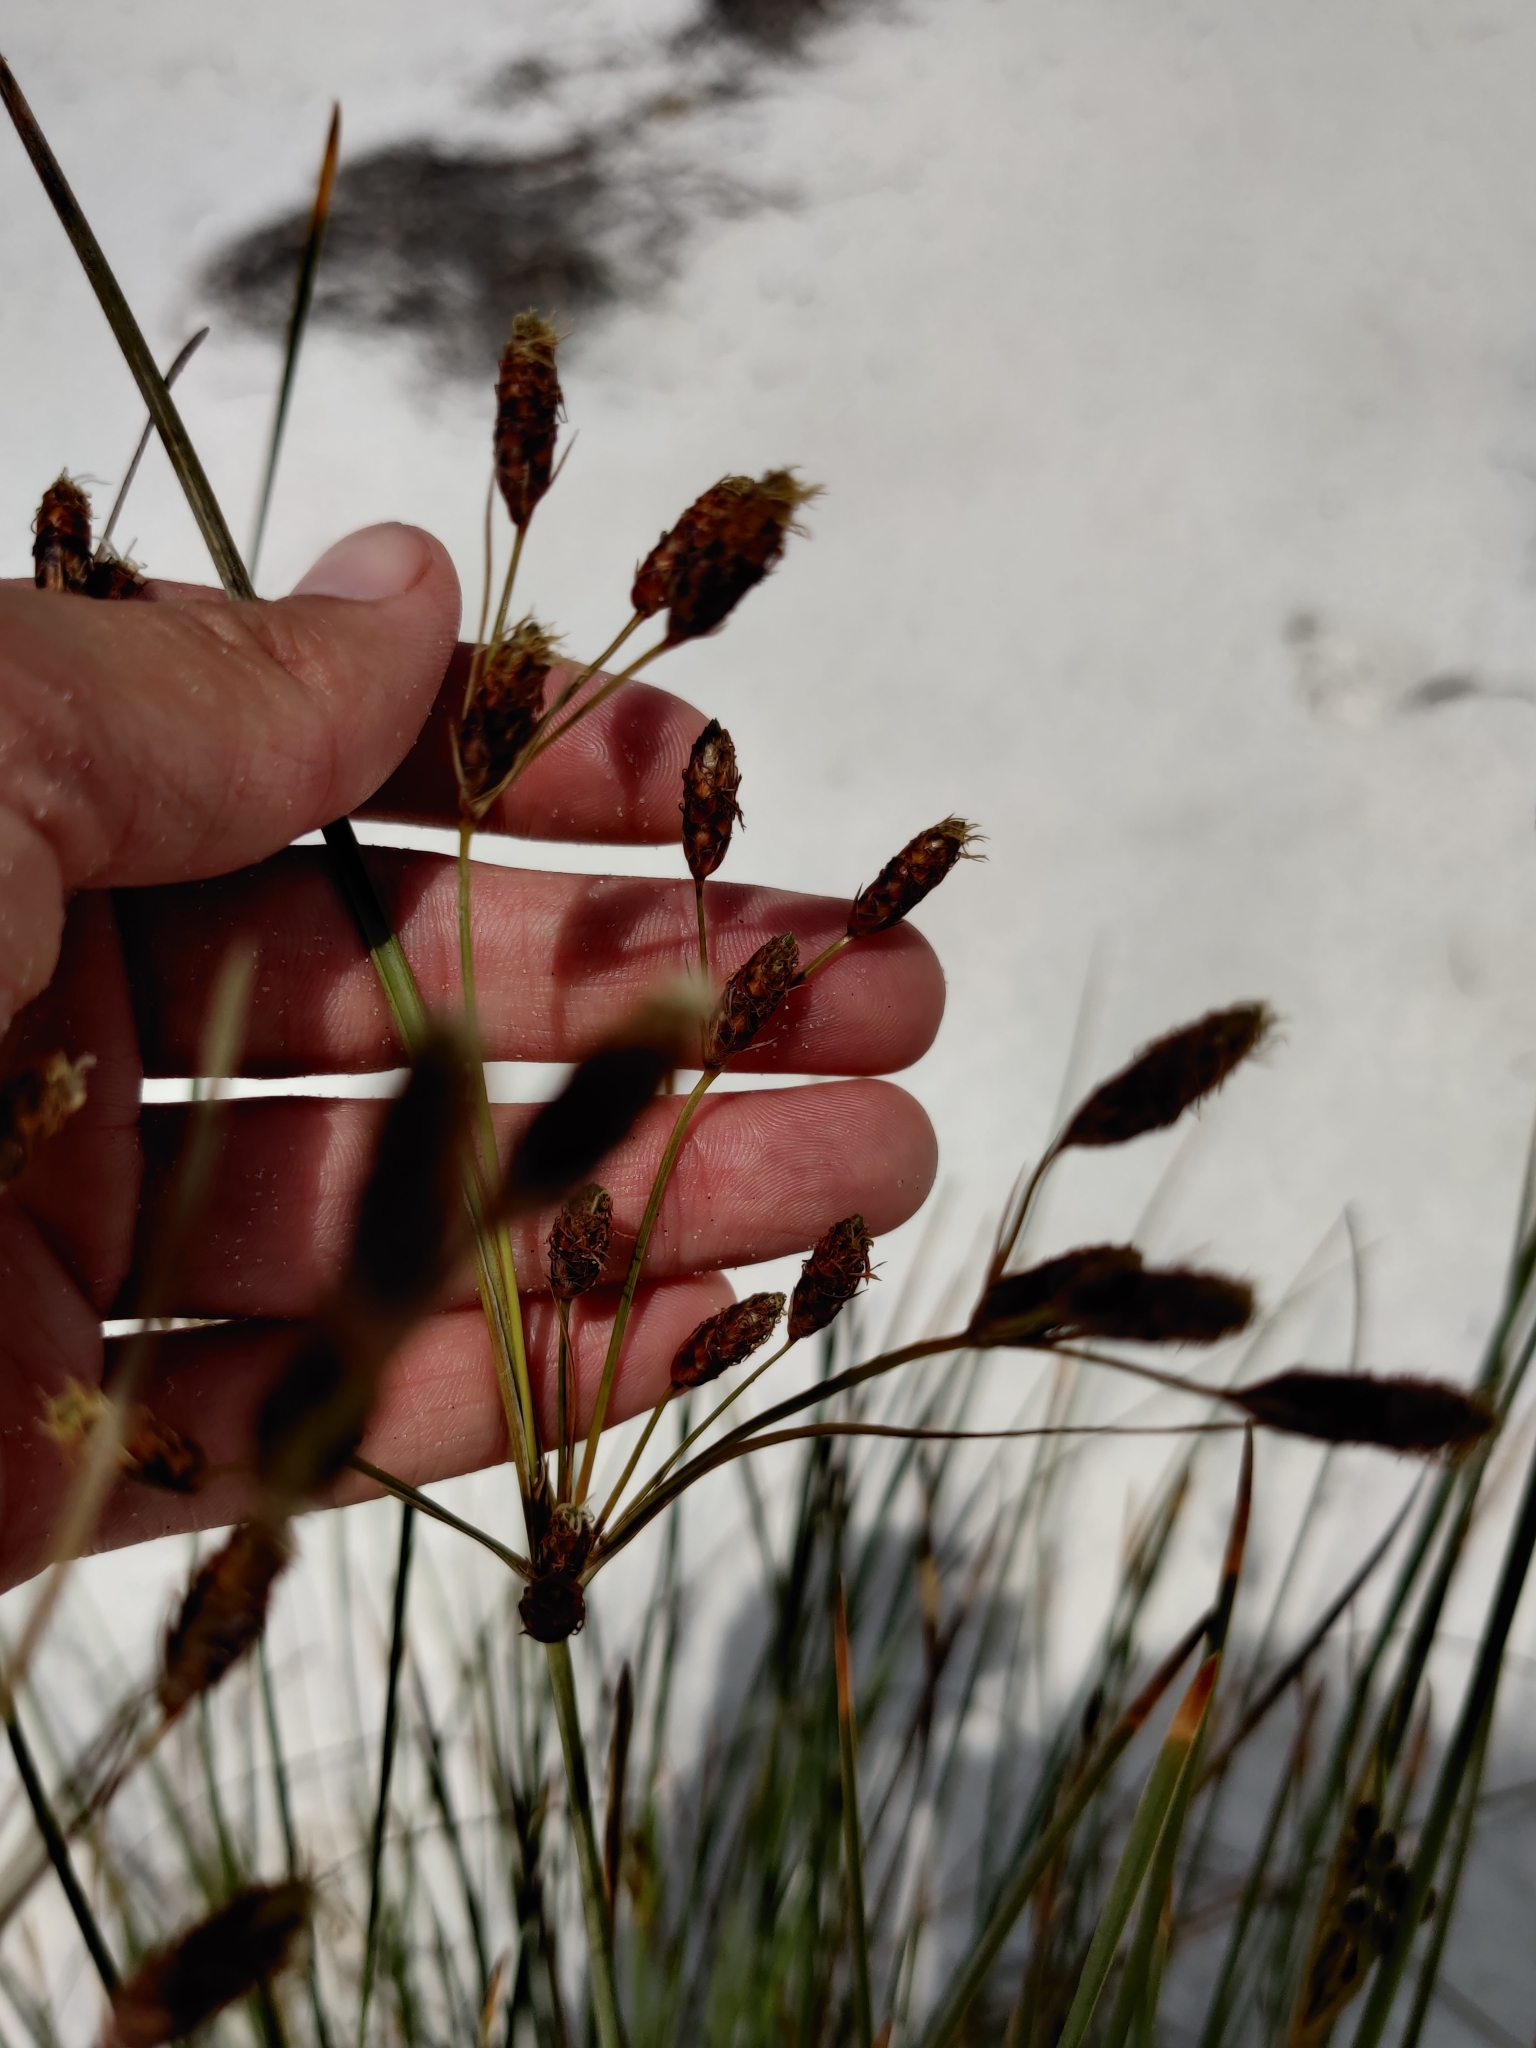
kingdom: Plantae
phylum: Tracheophyta
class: Liliopsida
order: Poales
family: Cyperaceae
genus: Fimbristylis
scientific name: Fimbristylis spadicea
